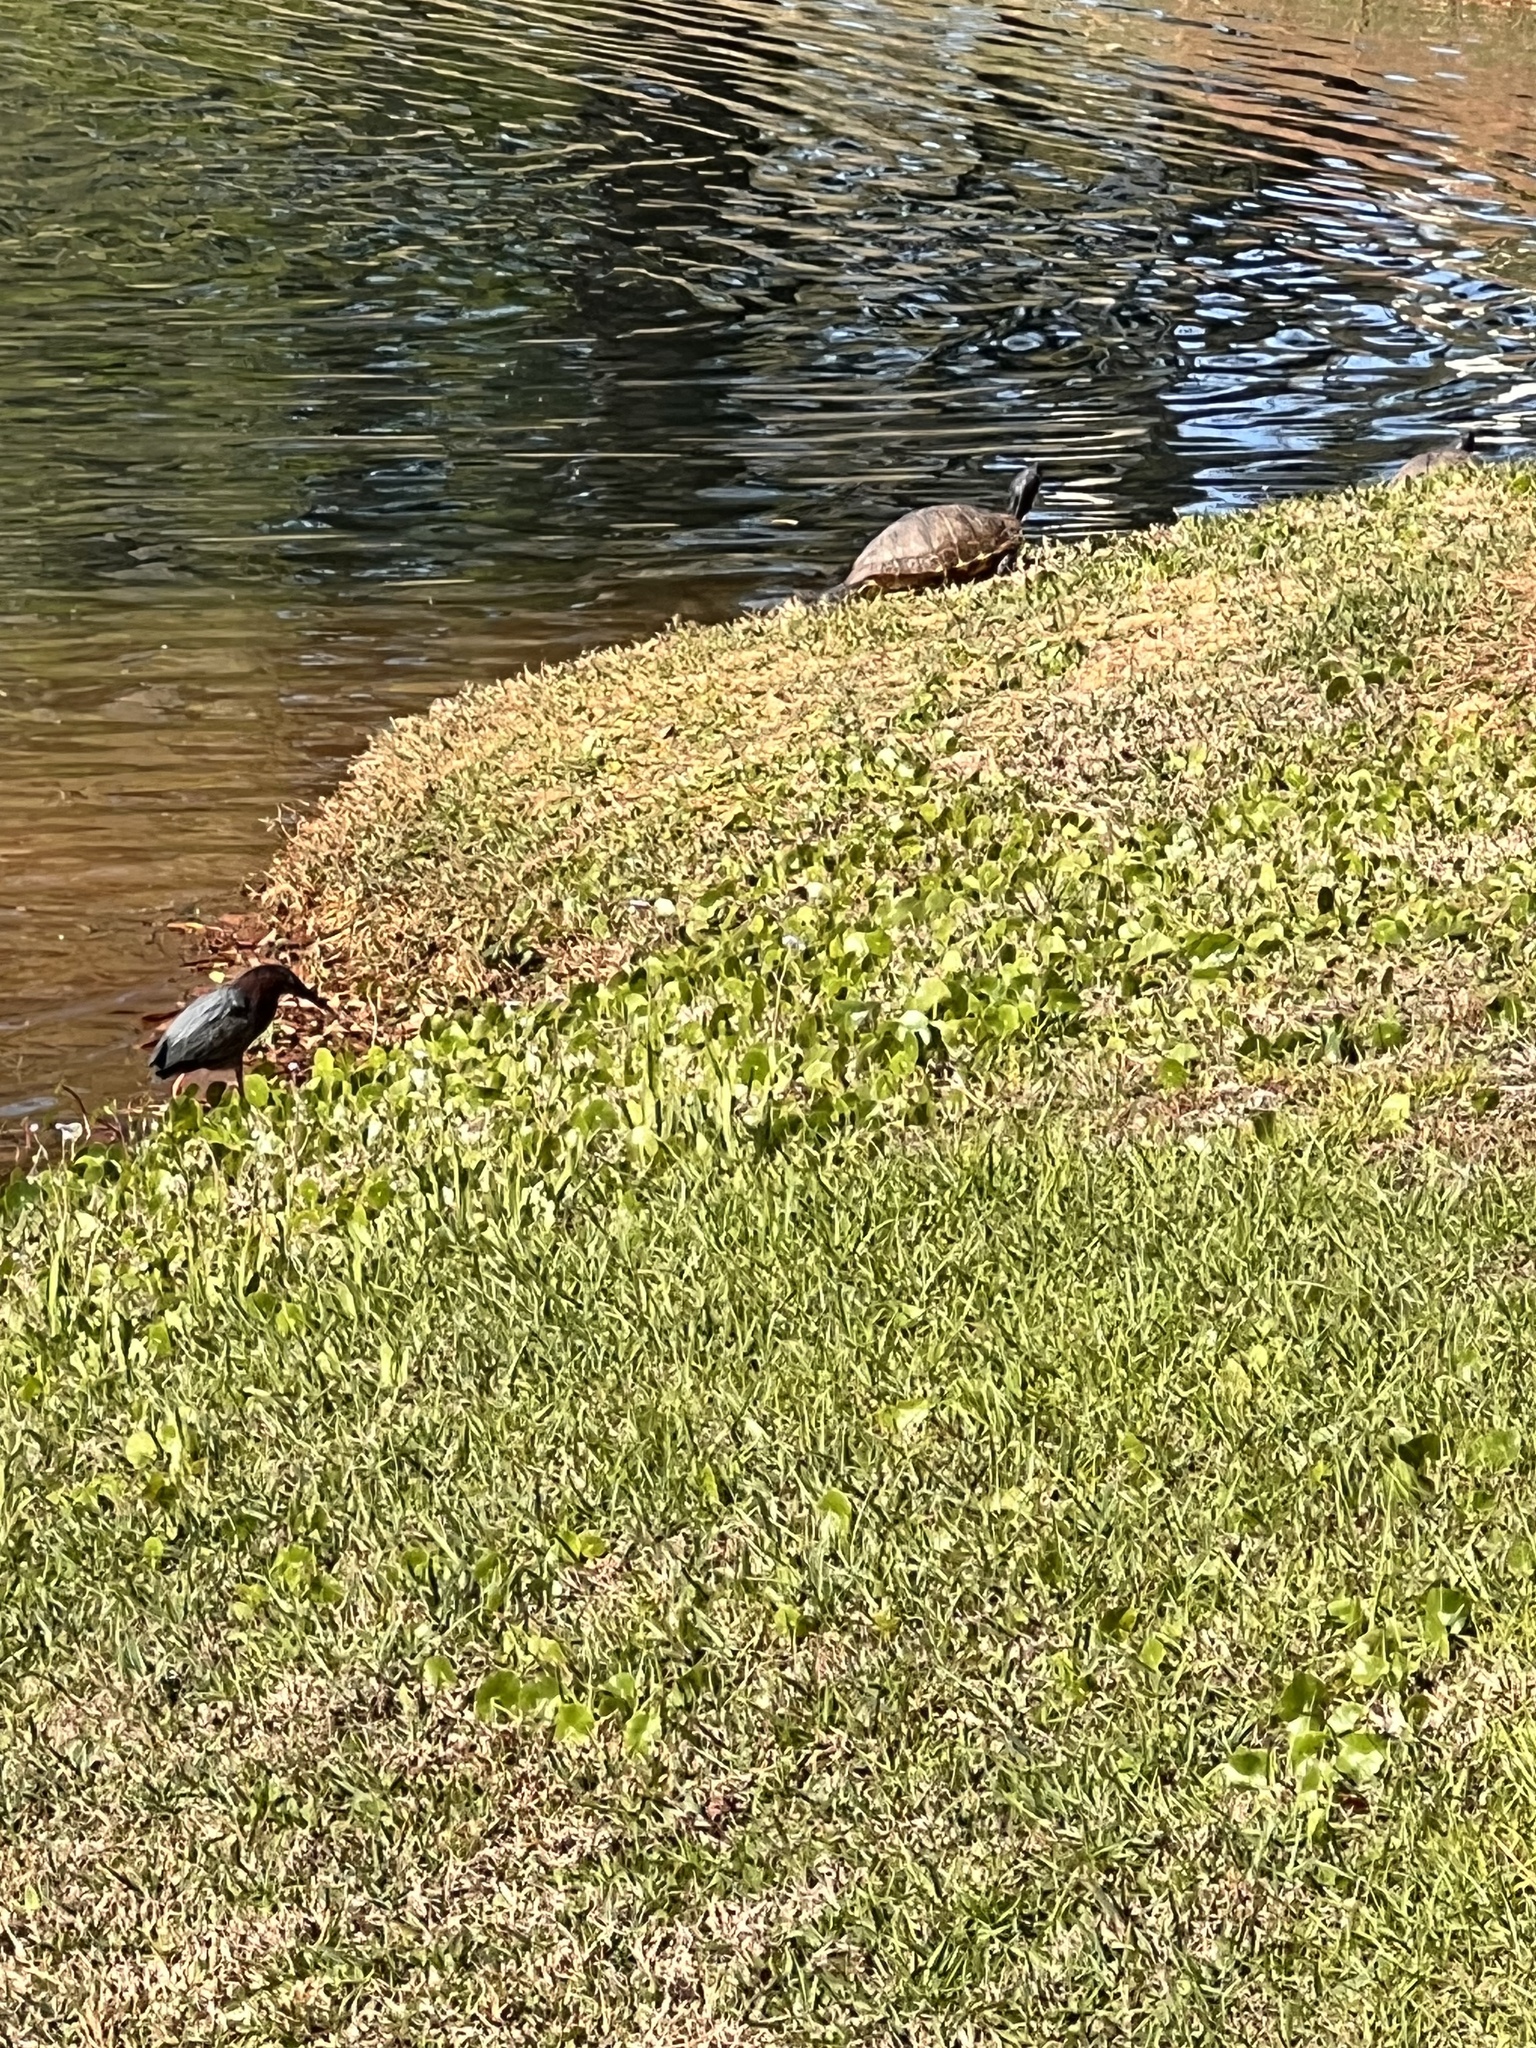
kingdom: Animalia
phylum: Chordata
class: Aves
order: Pelecaniformes
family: Ardeidae
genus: Butorides
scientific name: Butorides virescens
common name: Green heron
